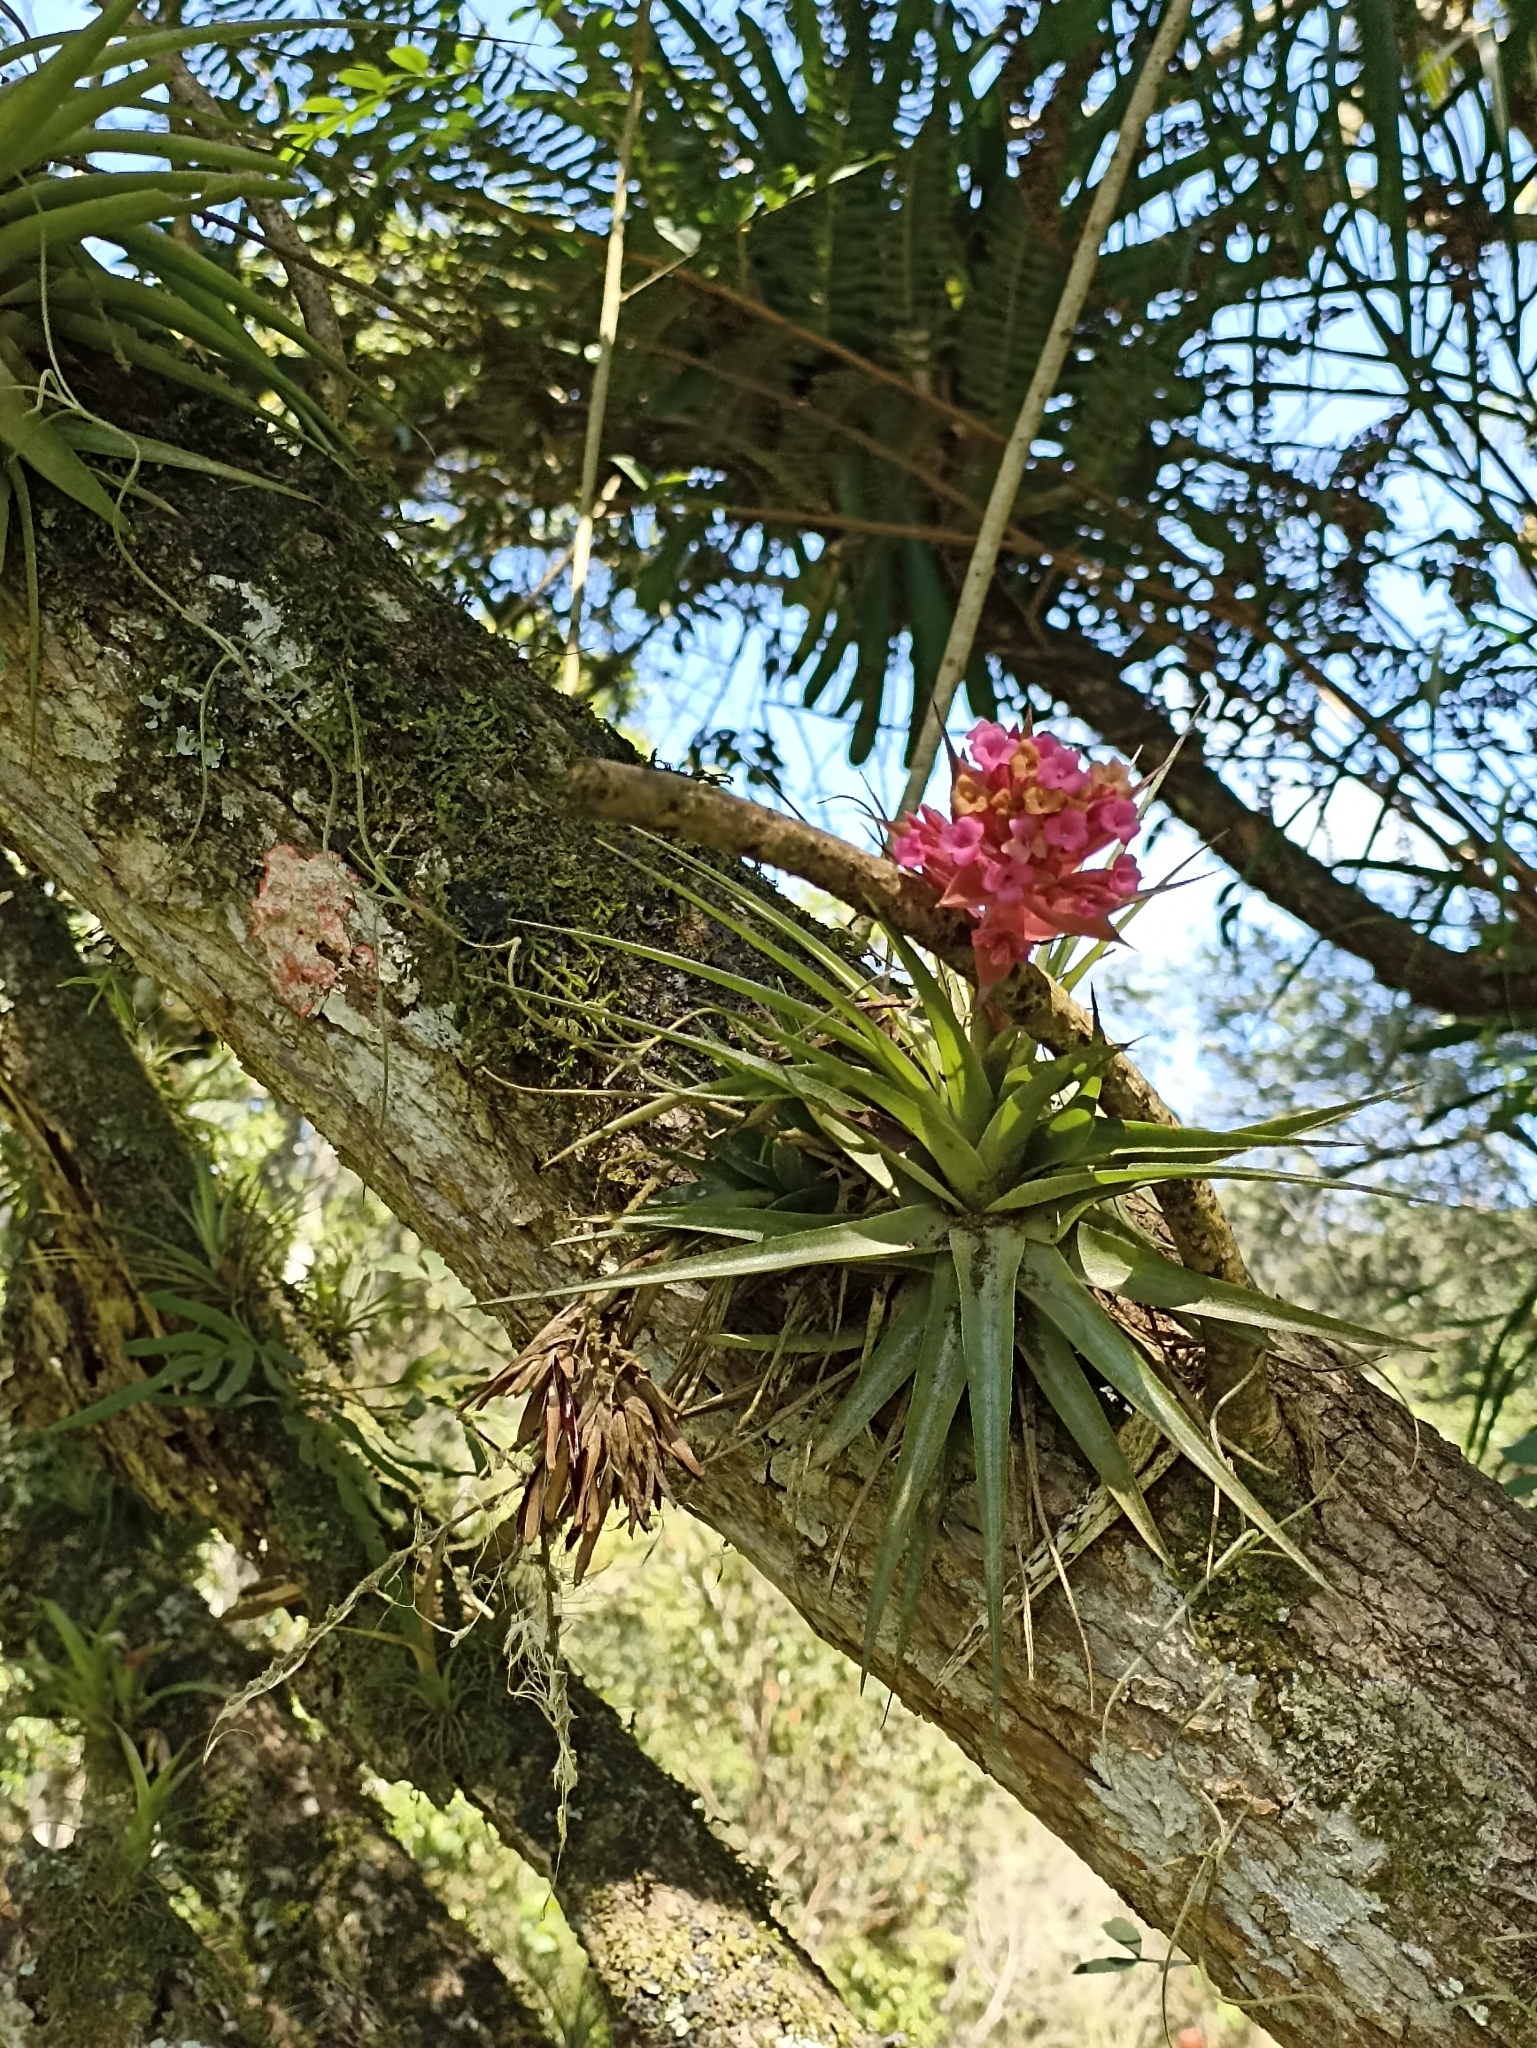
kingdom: Plantae
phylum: Tracheophyta
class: Liliopsida
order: Poales
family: Bromeliaceae
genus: Tillandsia
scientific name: Tillandsia geminiflora
